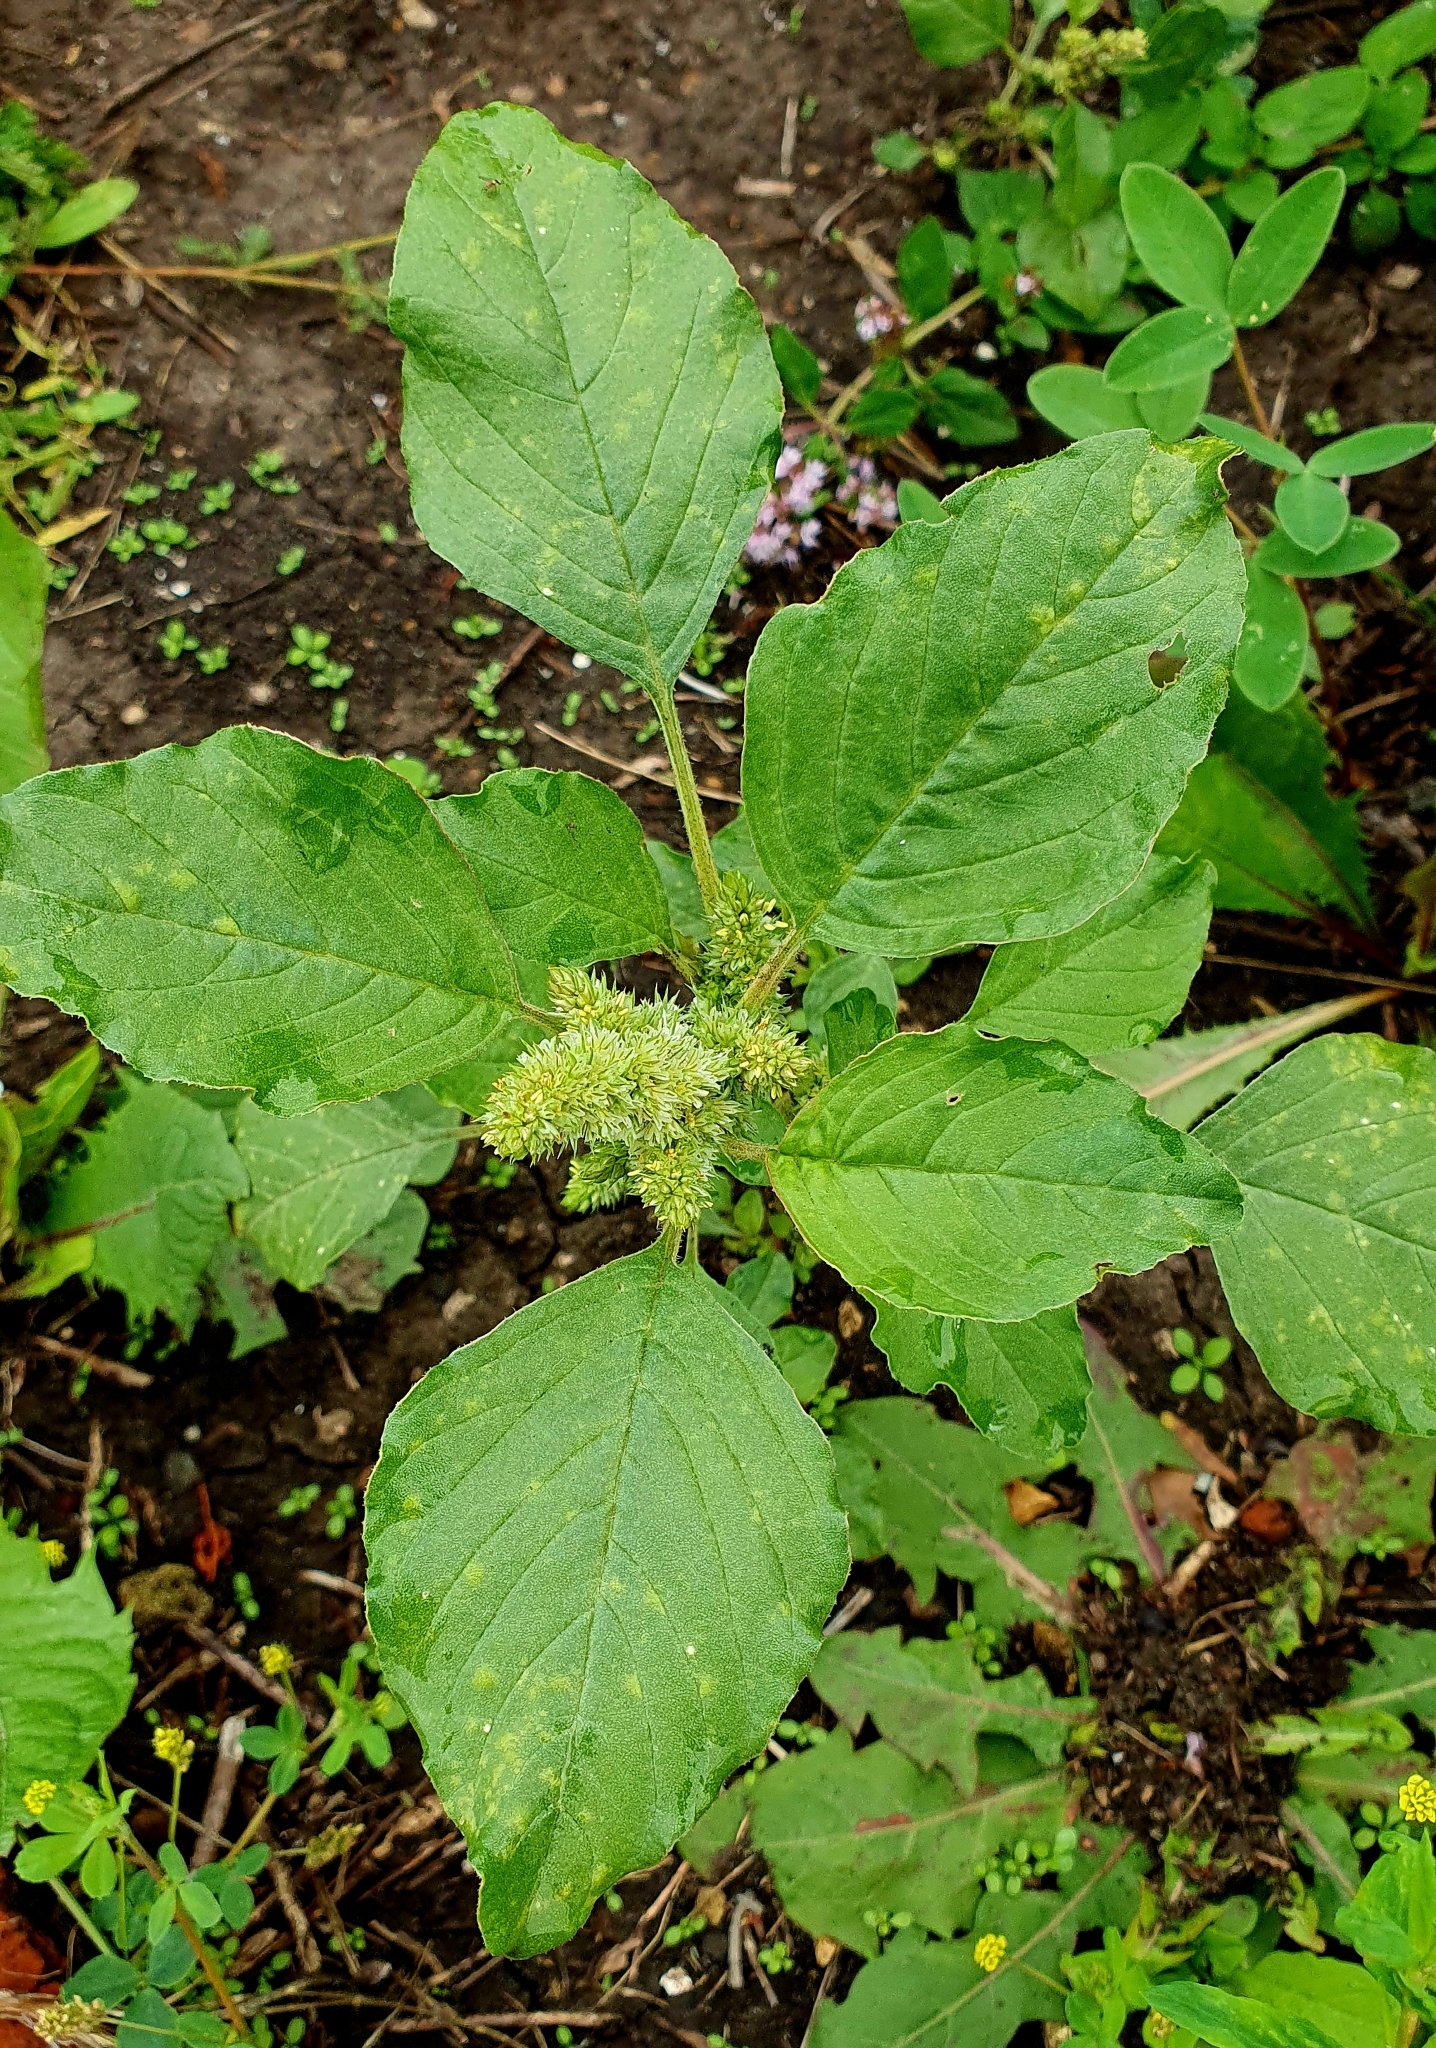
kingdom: Plantae
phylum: Tracheophyta
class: Magnoliopsida
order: Caryophyllales
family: Amaranthaceae
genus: Amaranthus
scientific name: Amaranthus retroflexus
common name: Redroot amaranth
